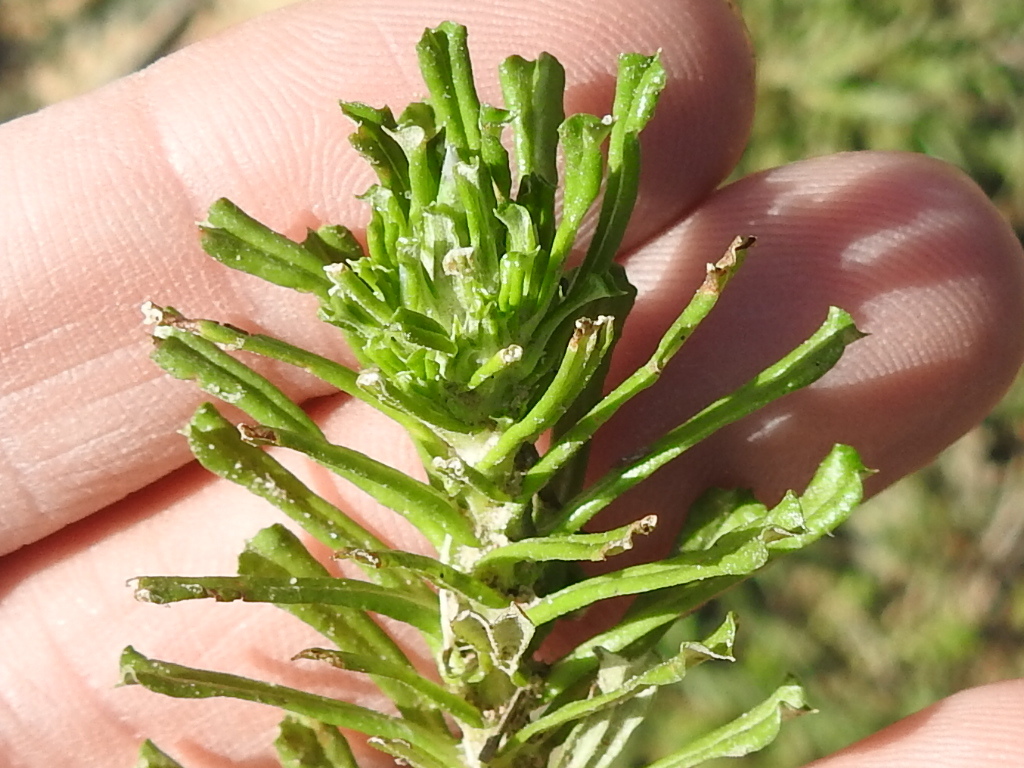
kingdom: Plantae
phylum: Tracheophyta
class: Magnoliopsida
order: Asterales
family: Asteraceae
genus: Facelis
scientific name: Facelis retusa
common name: Annual trampweed
